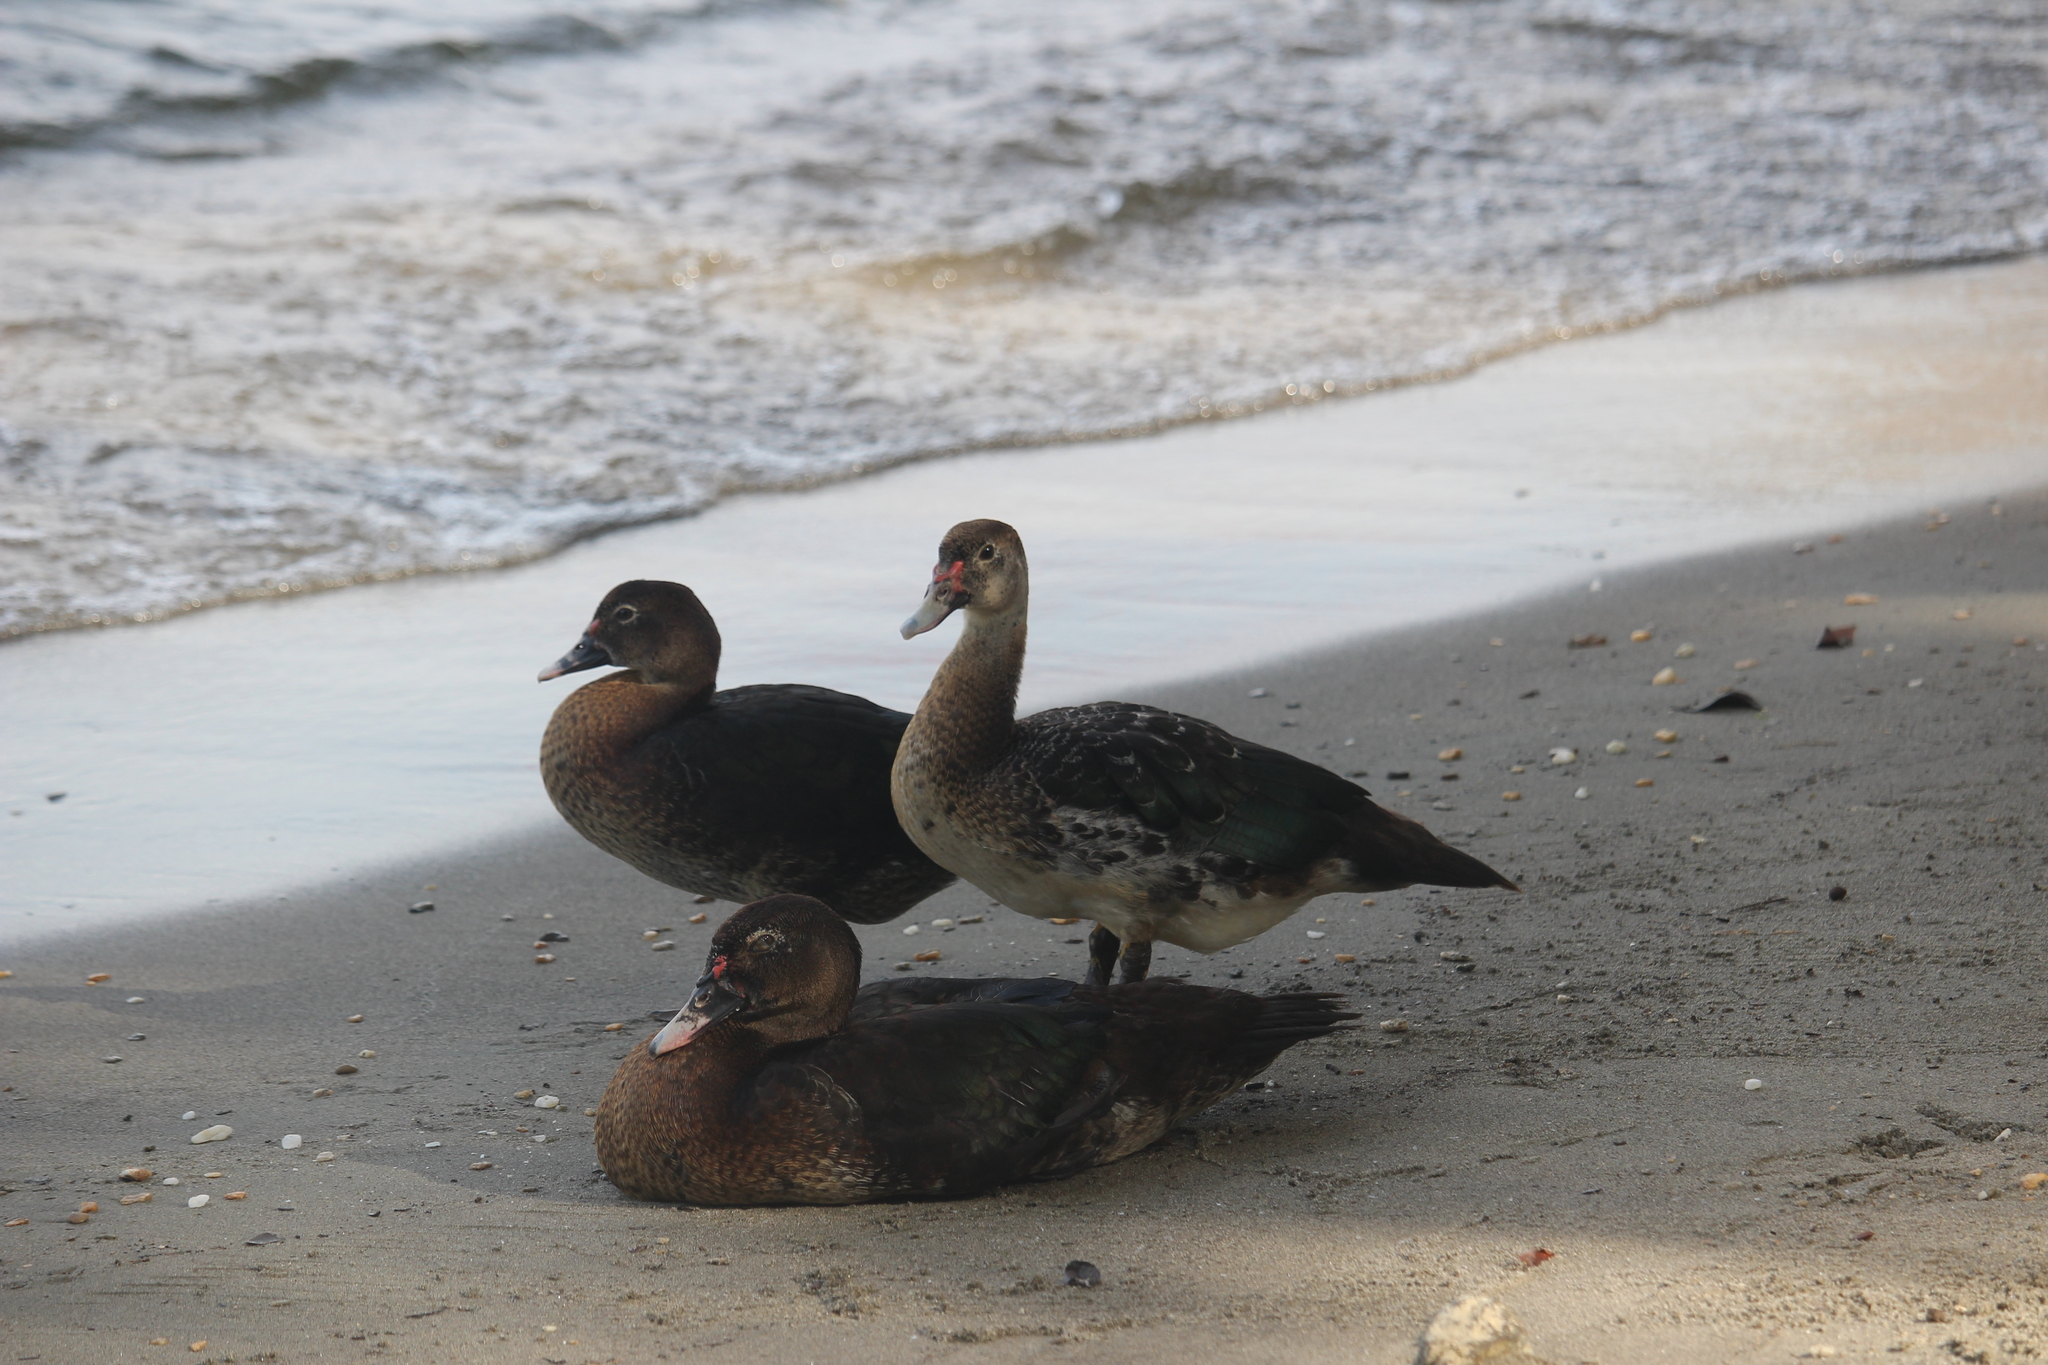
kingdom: Animalia
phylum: Chordata
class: Aves
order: Anseriformes
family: Anatidae
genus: Cairina
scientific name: Cairina moschata
